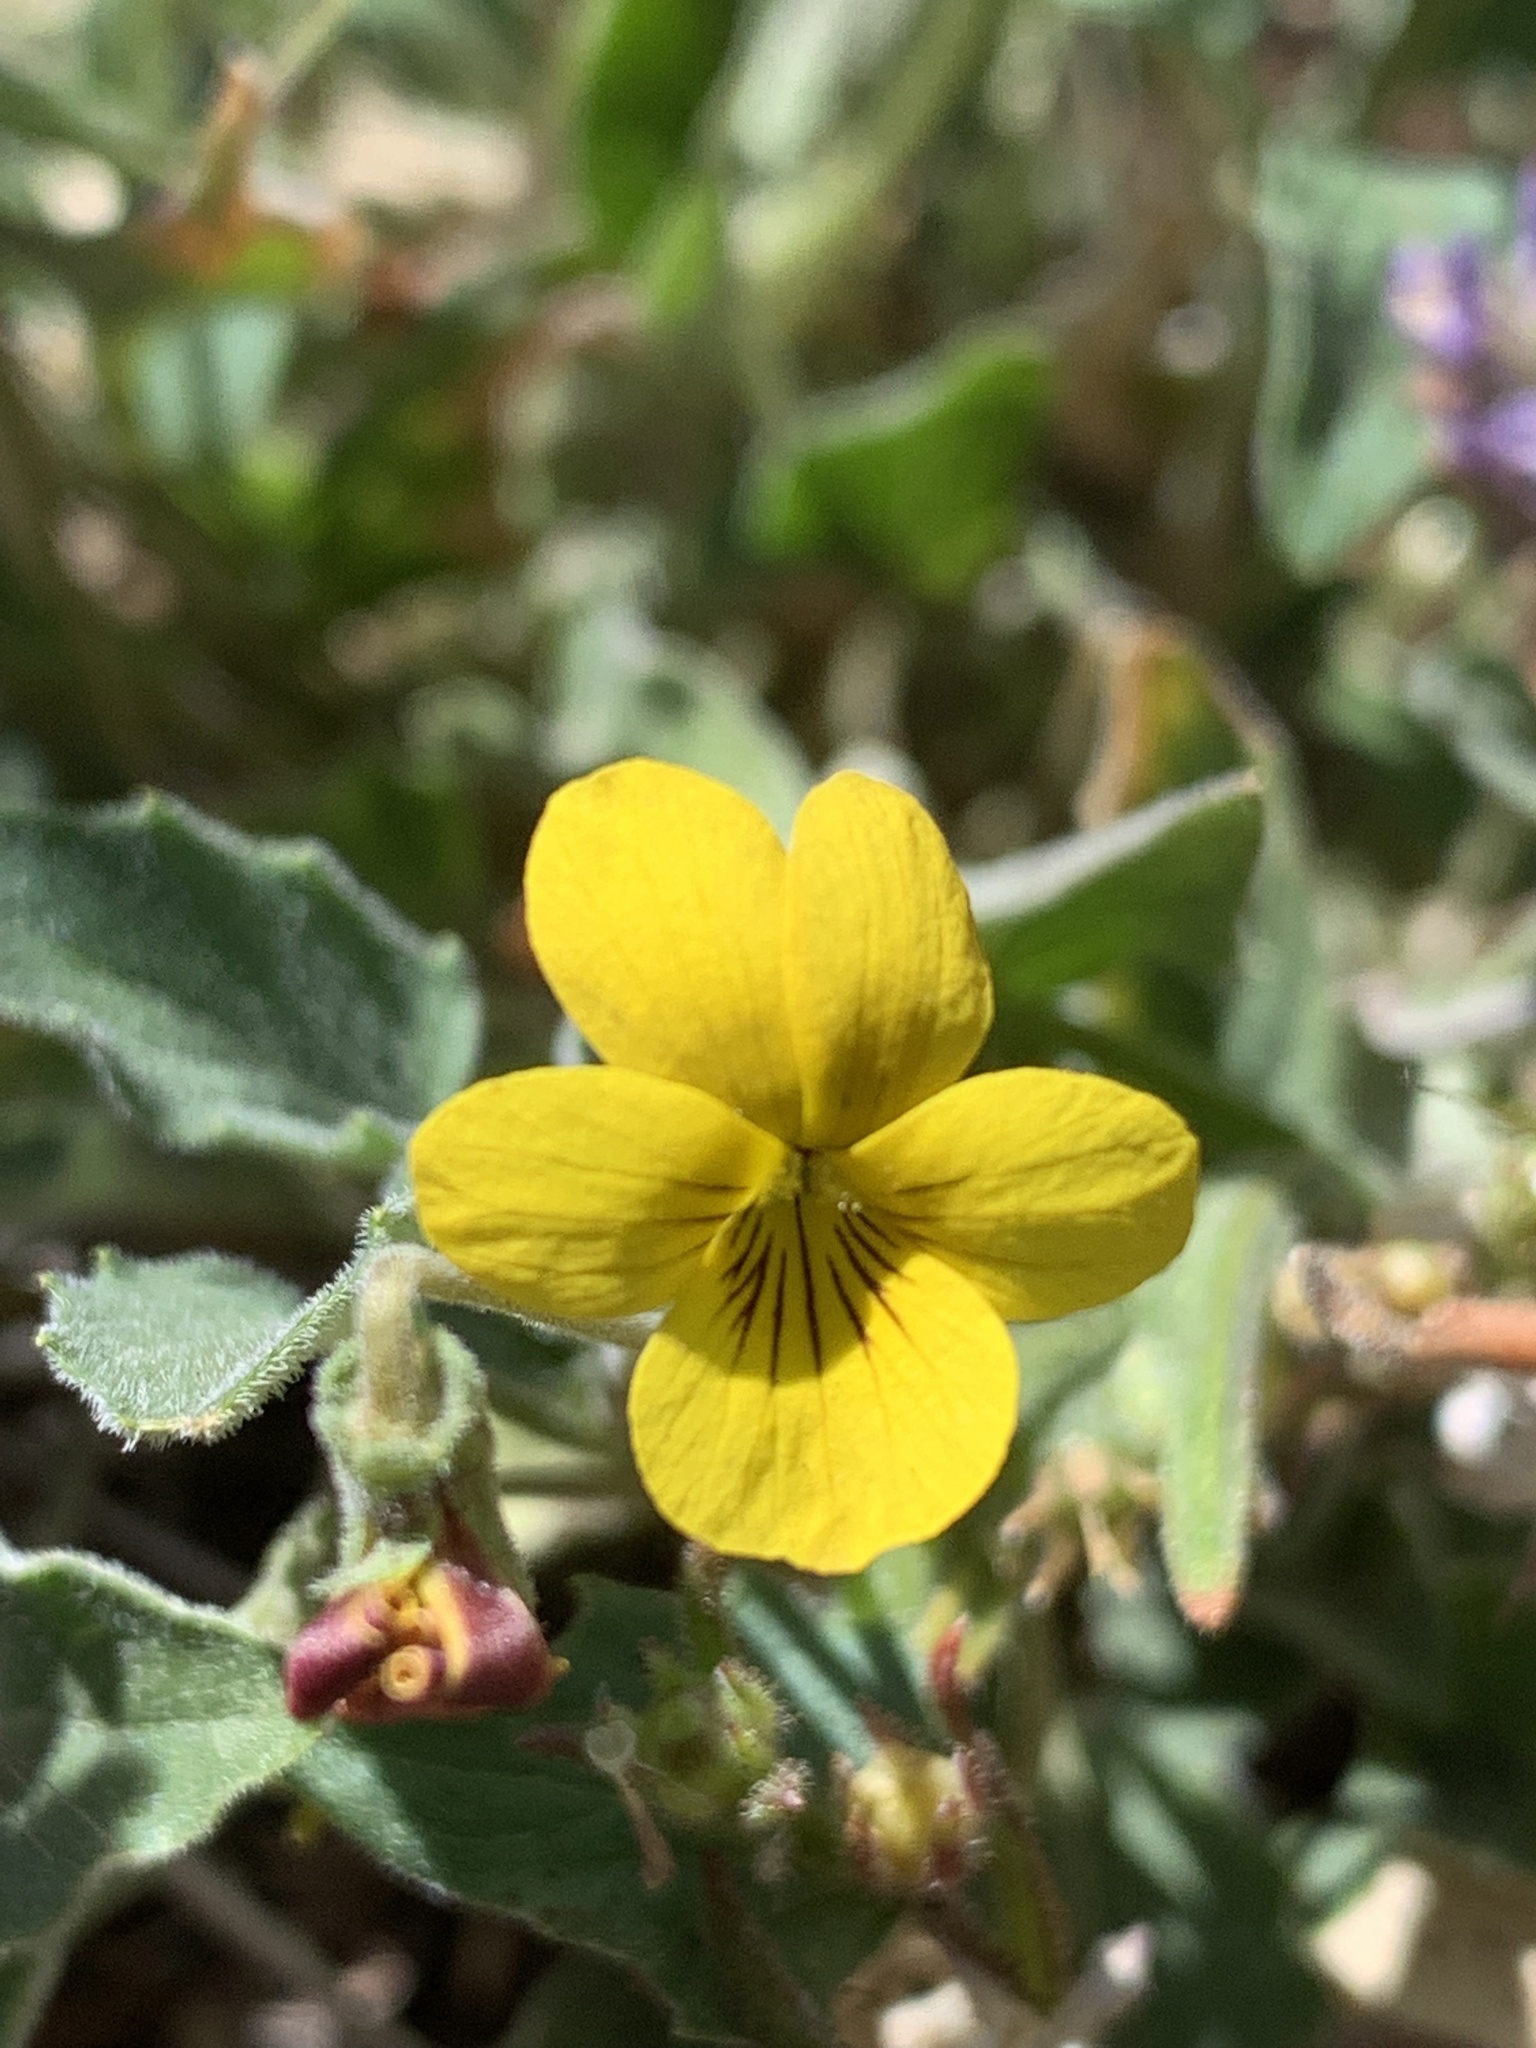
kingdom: Plantae
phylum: Tracheophyta
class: Magnoliopsida
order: Malpighiales
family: Violaceae
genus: Viola
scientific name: Viola purpurea
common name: Pine violet
